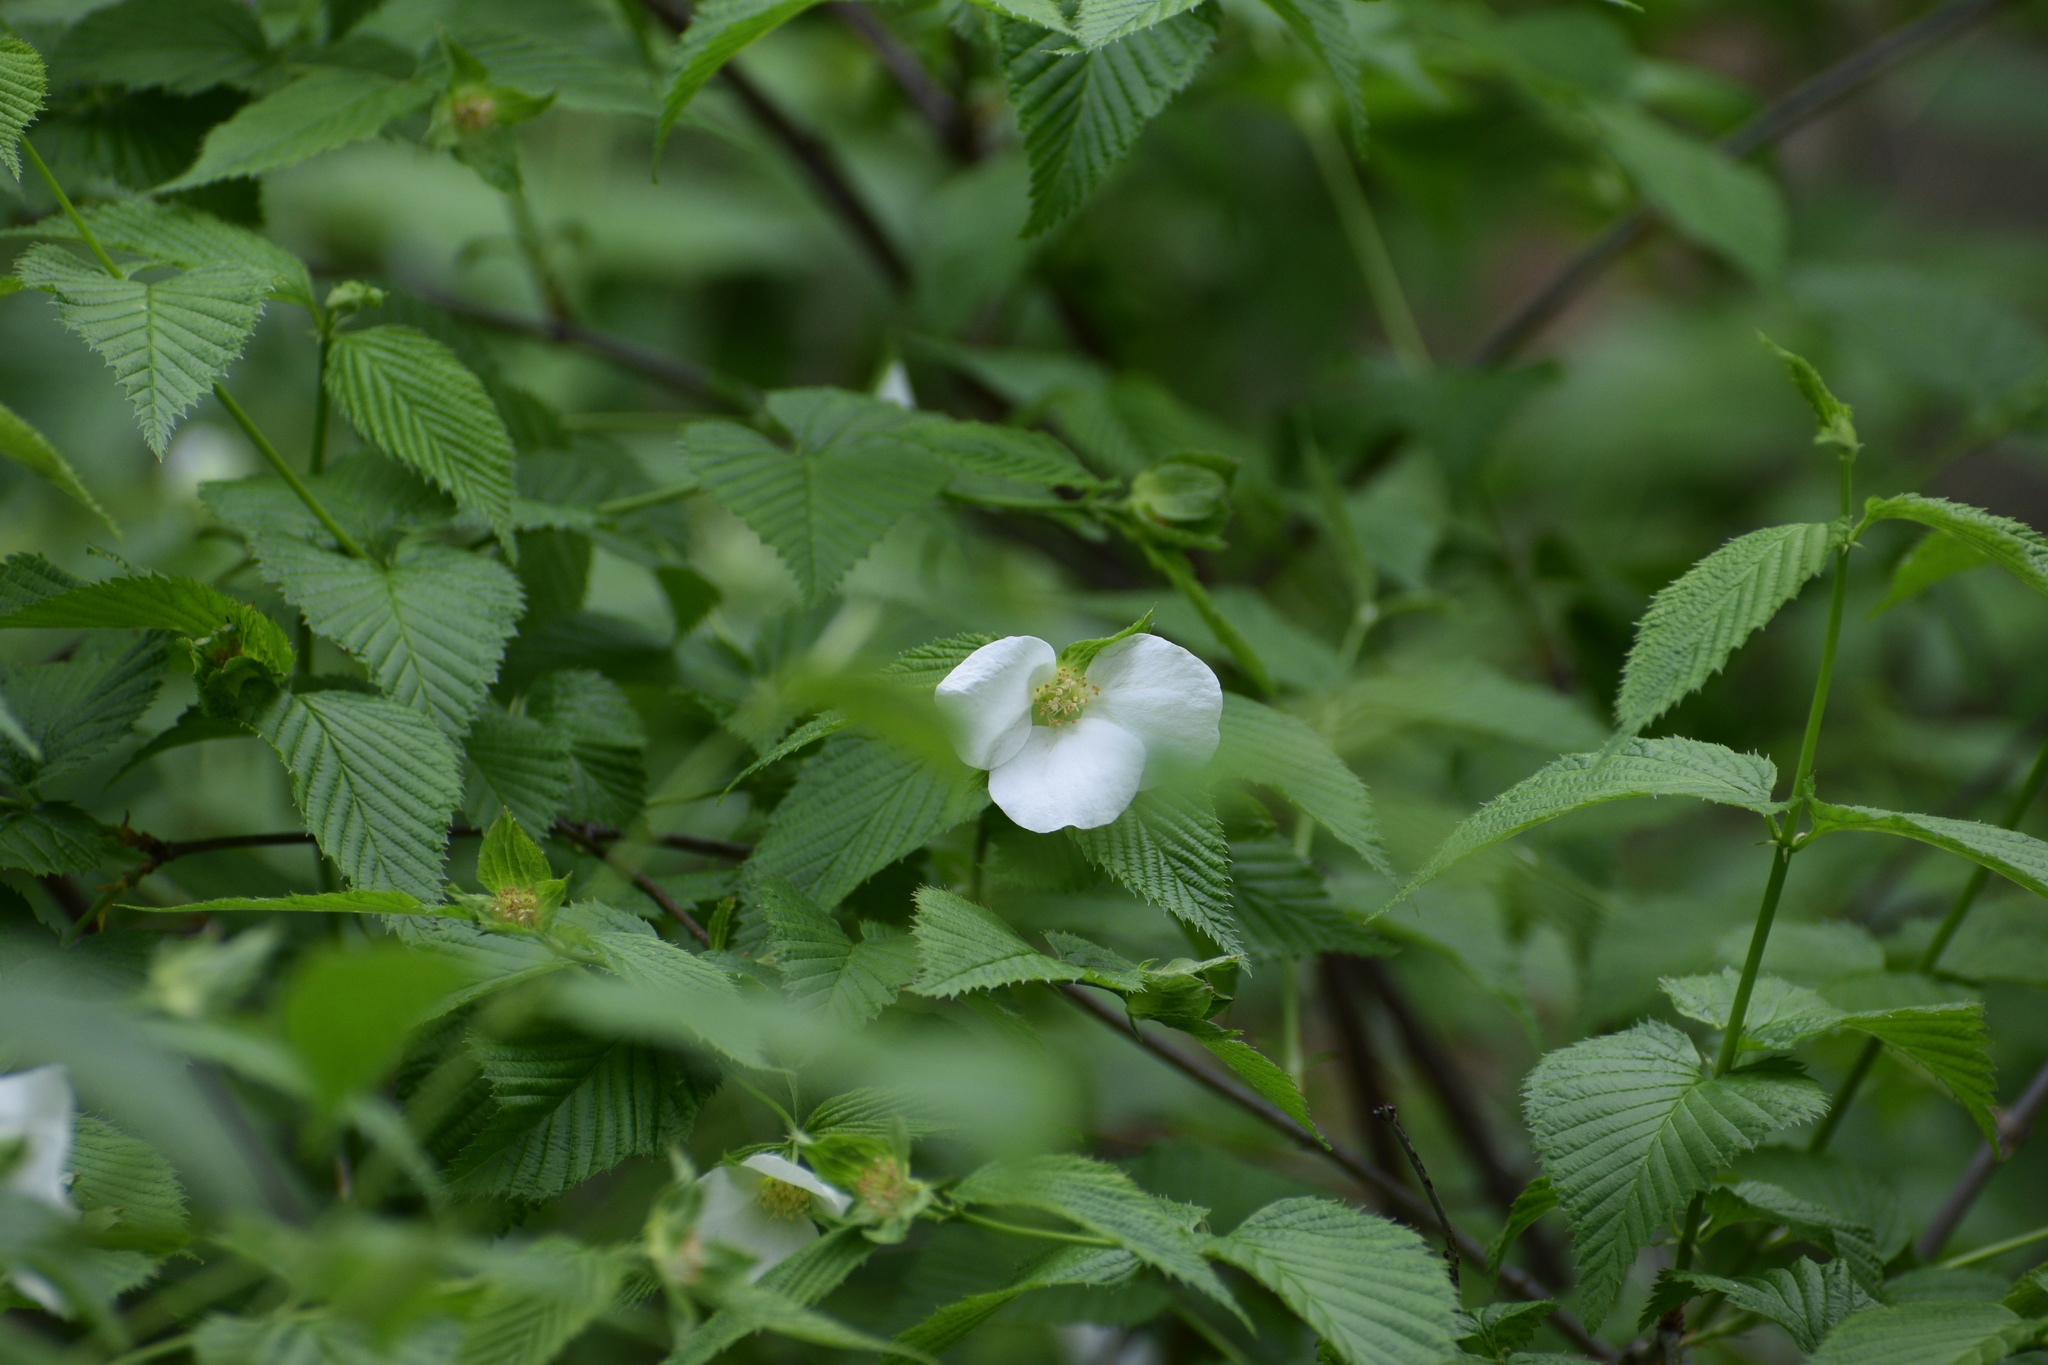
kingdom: Plantae
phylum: Tracheophyta
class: Magnoliopsida
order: Rosales
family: Rosaceae
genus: Rhodotypos
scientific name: Rhodotypos scandens
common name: Jetbead
